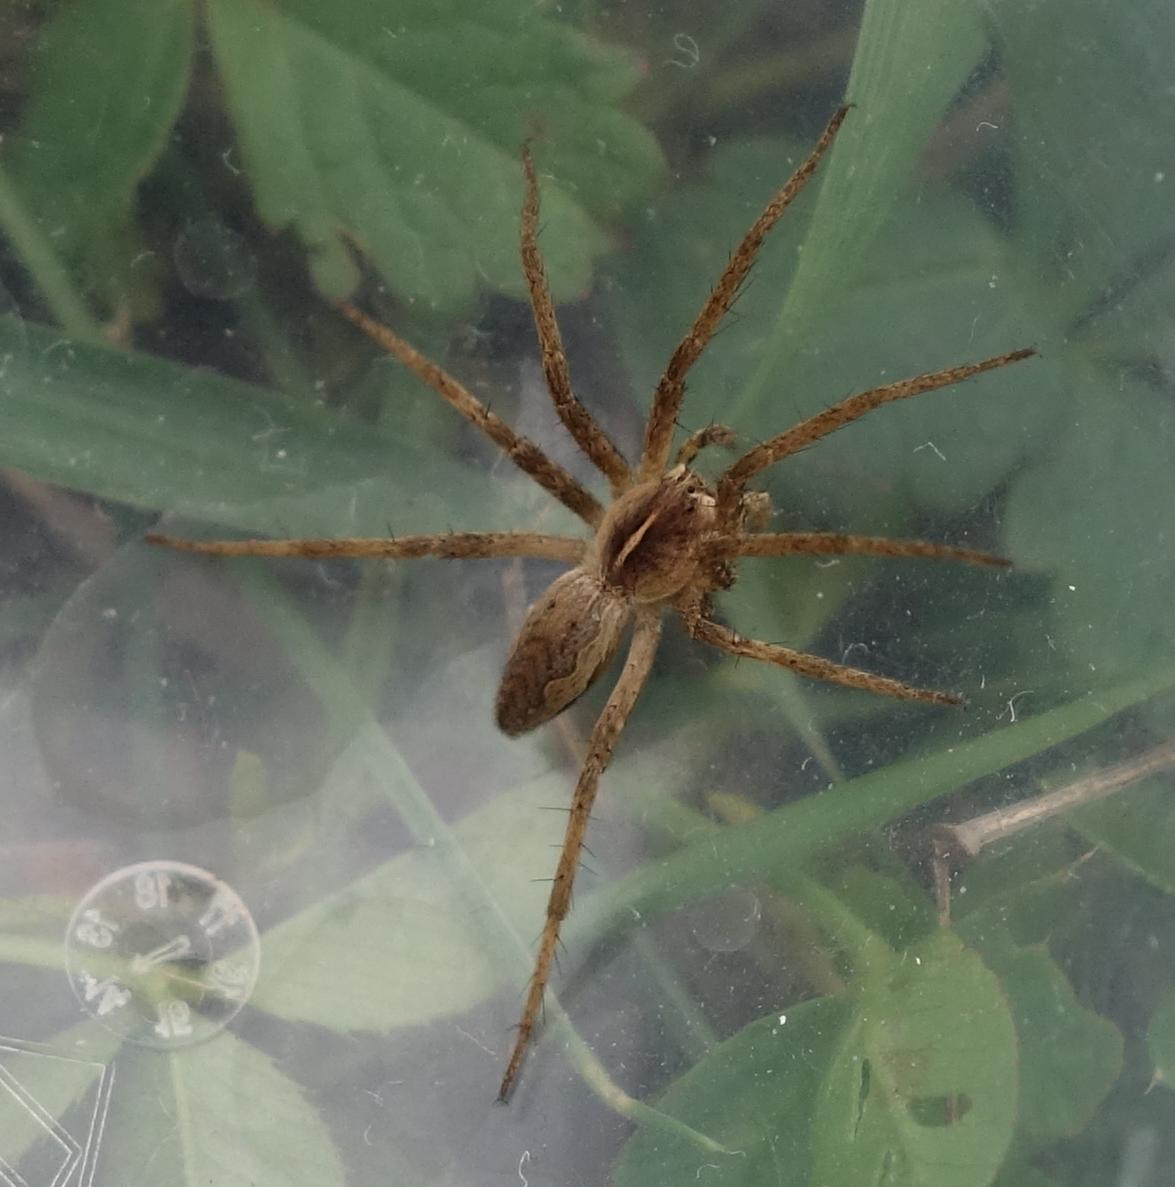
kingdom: Animalia
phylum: Arthropoda
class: Arachnida
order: Araneae
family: Pisauridae
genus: Pisaura
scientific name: Pisaura mirabilis
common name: Tent spider
